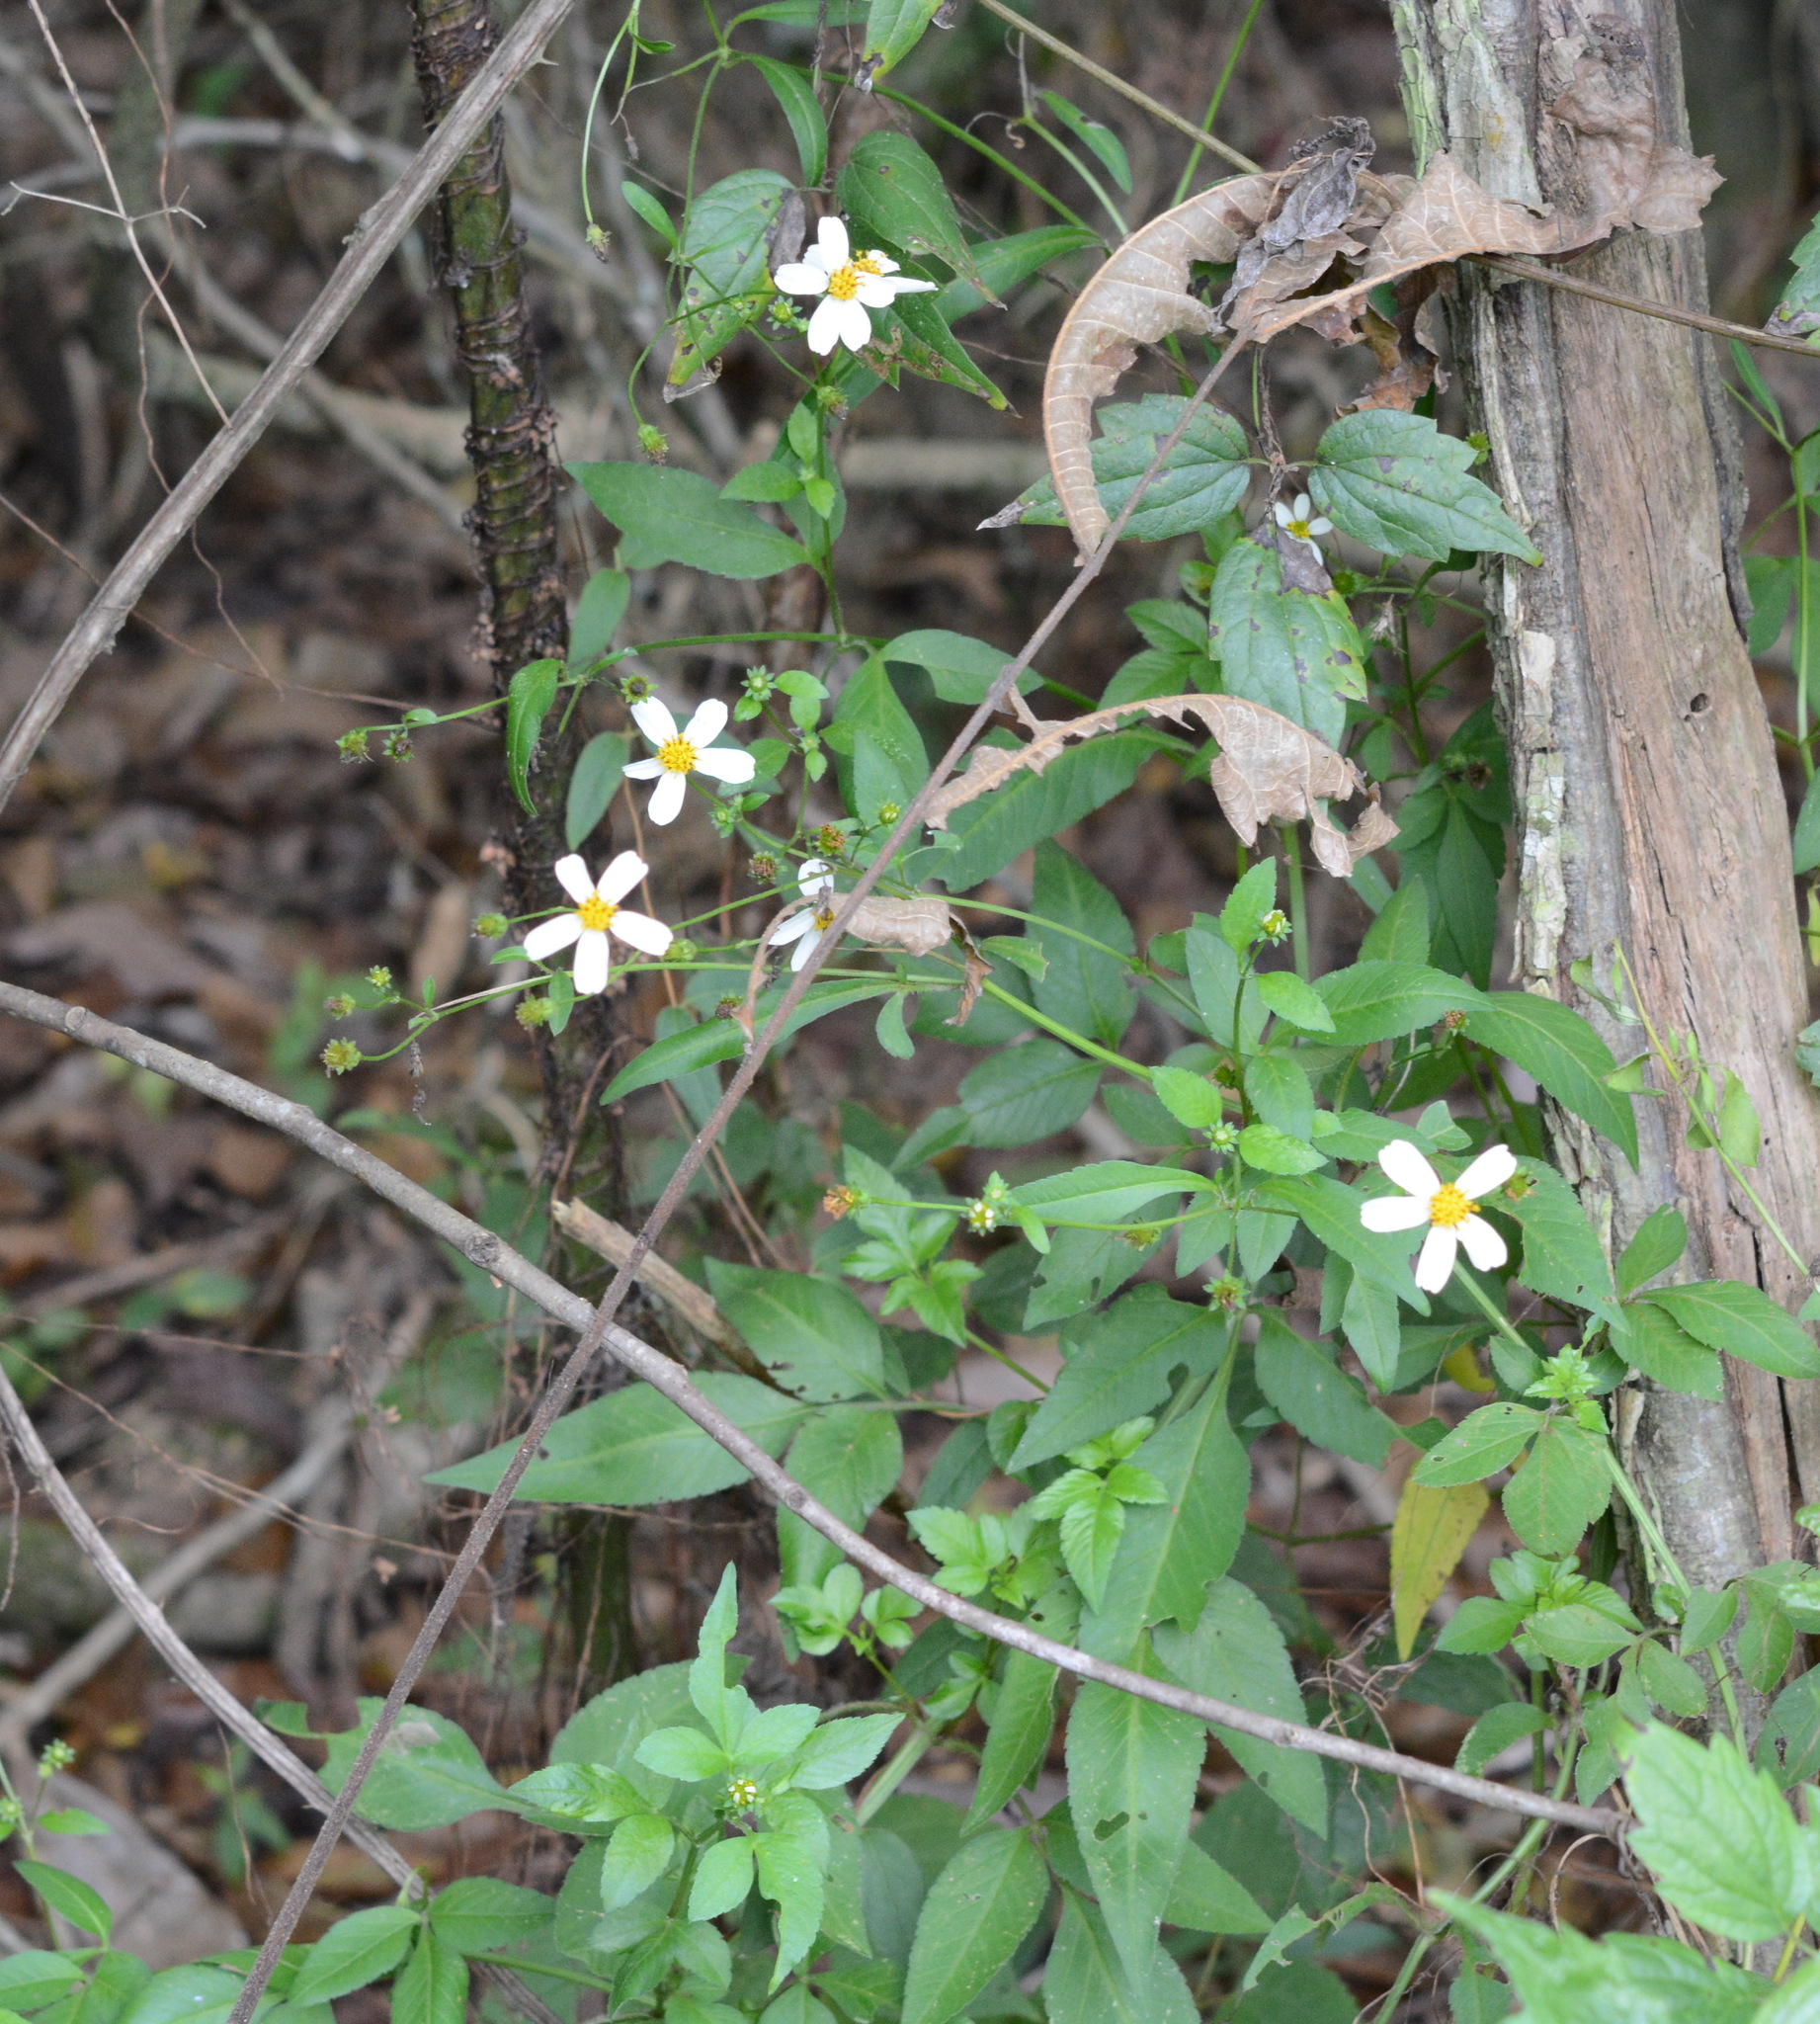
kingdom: Plantae
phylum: Tracheophyta
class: Magnoliopsida
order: Asterales
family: Asteraceae
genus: Bidens
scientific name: Bidens alba
